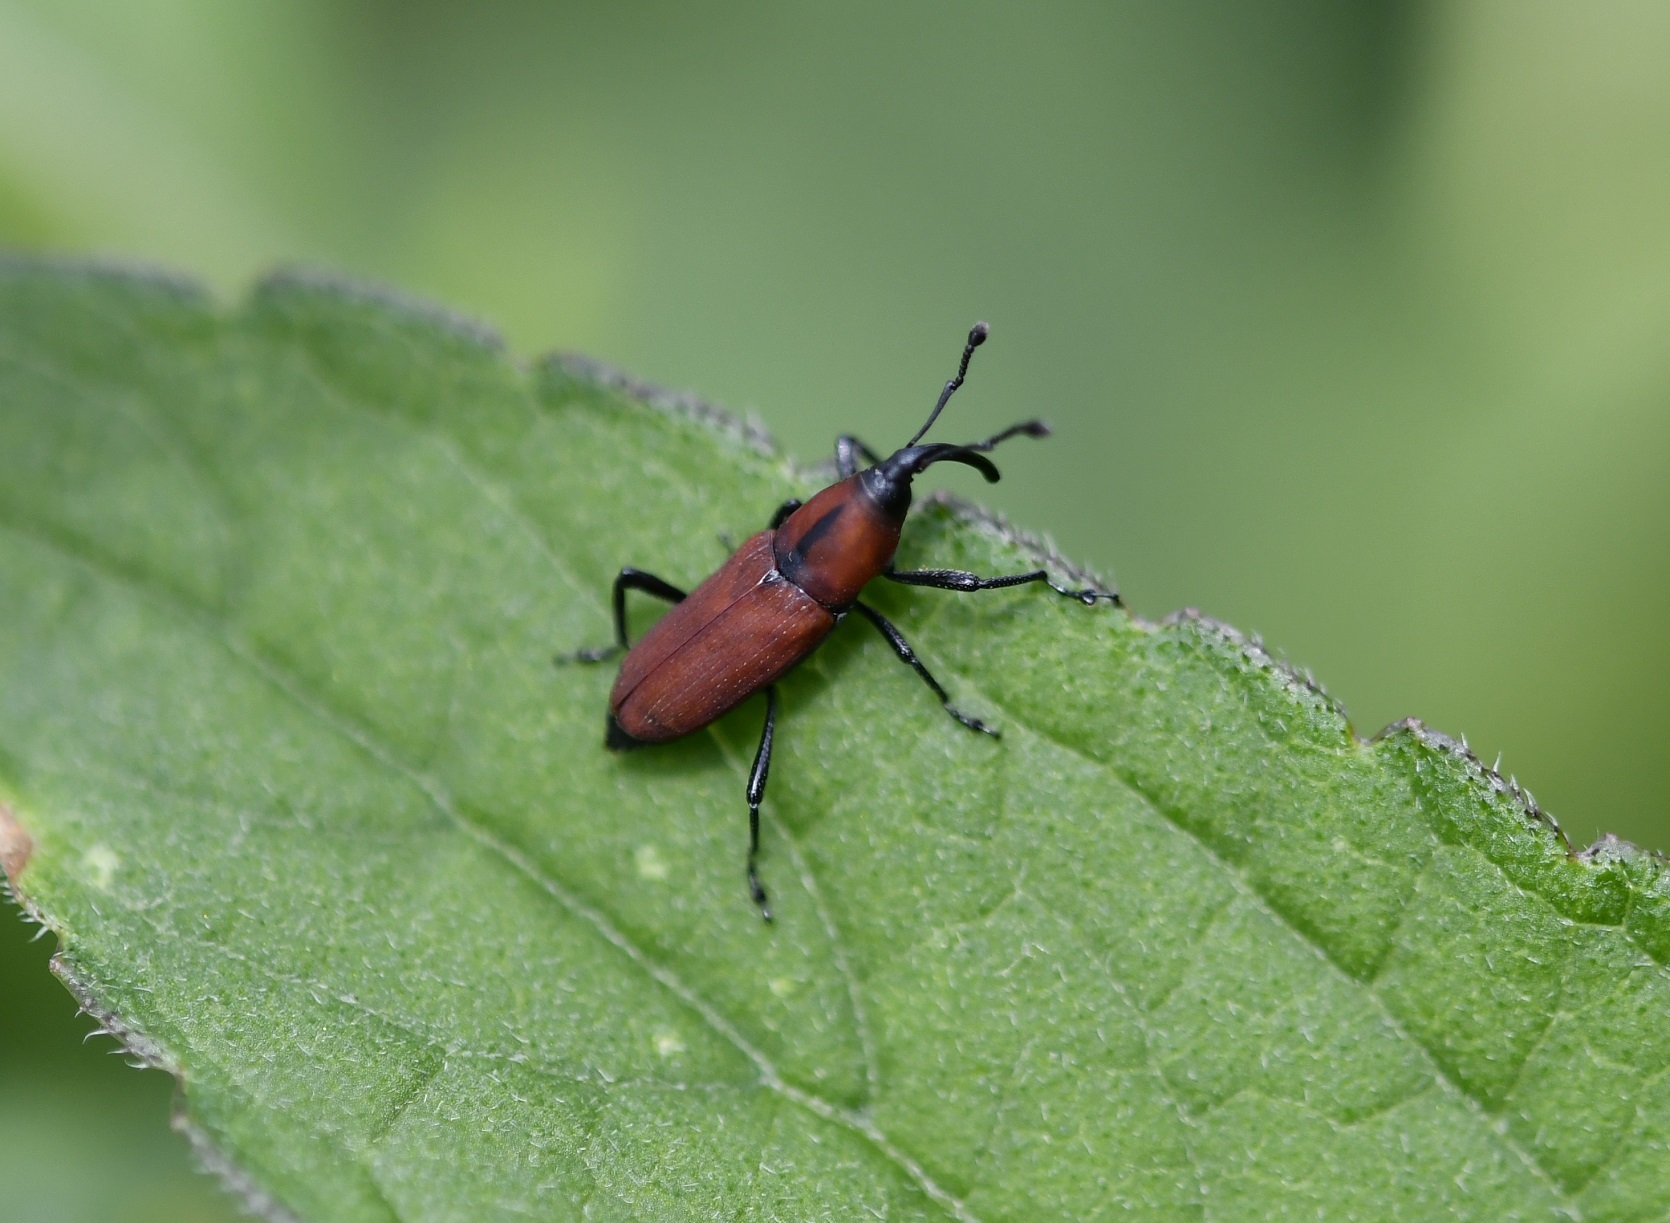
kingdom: Animalia
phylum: Arthropoda
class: Insecta
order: Coleoptera
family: Dryophthoridae
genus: Rhodobaenus
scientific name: Rhodobaenus sanguineus
